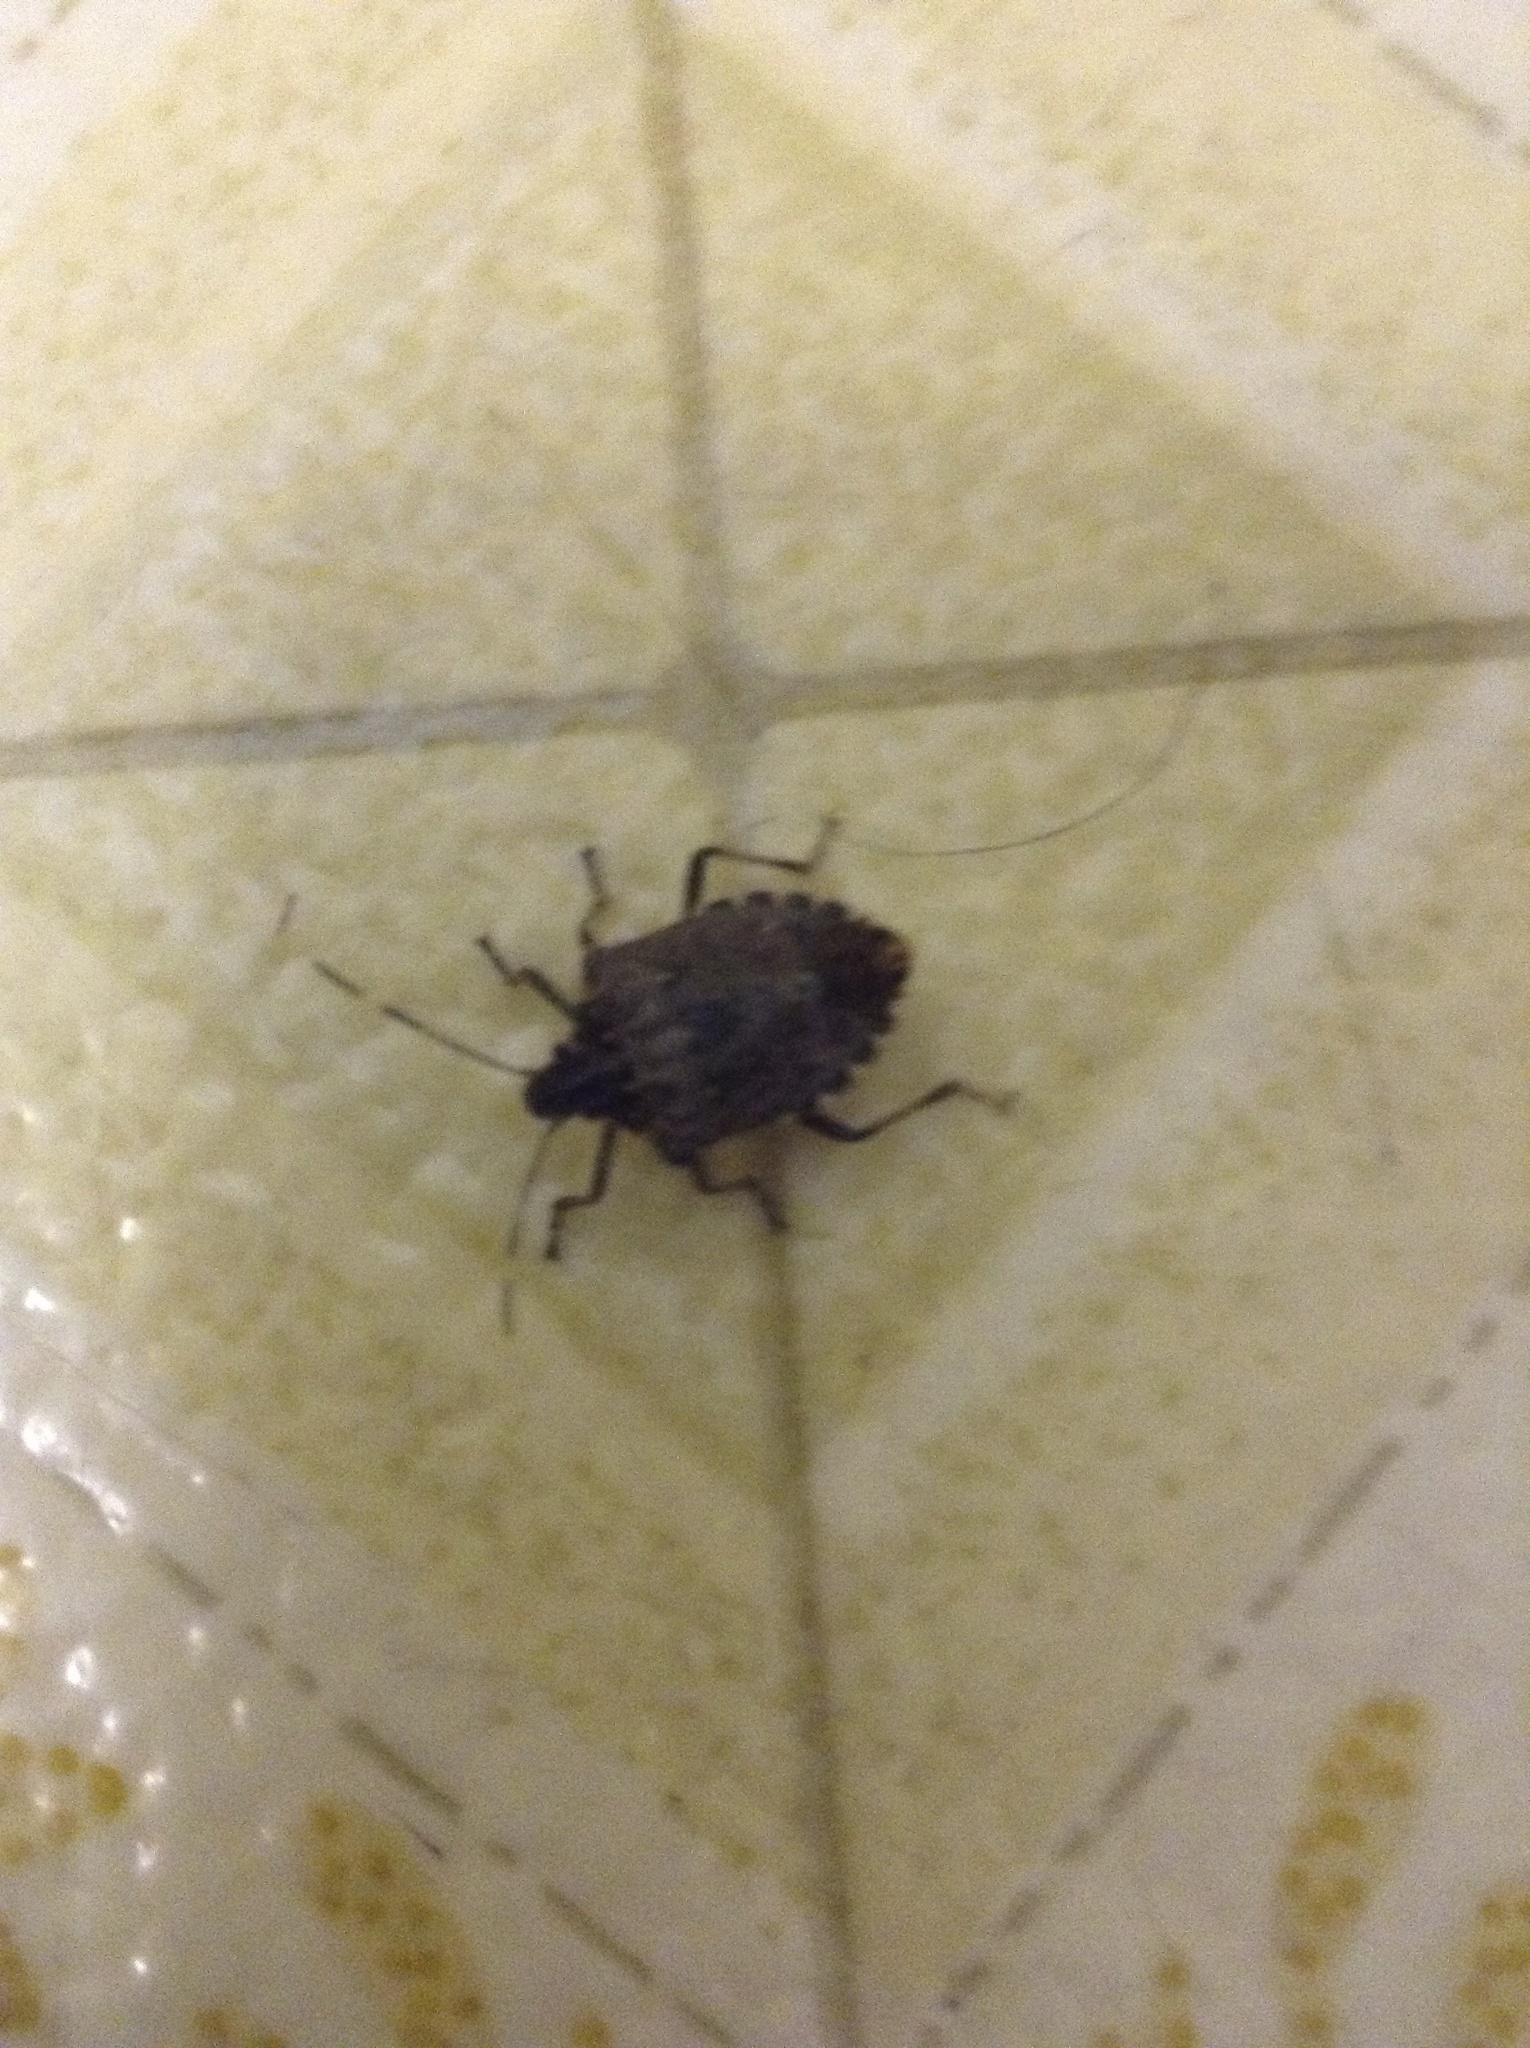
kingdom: Animalia
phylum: Arthropoda
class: Insecta
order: Hemiptera
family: Pentatomidae
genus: Halyomorpha
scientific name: Halyomorpha halys
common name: Brown marmorated stink bug
